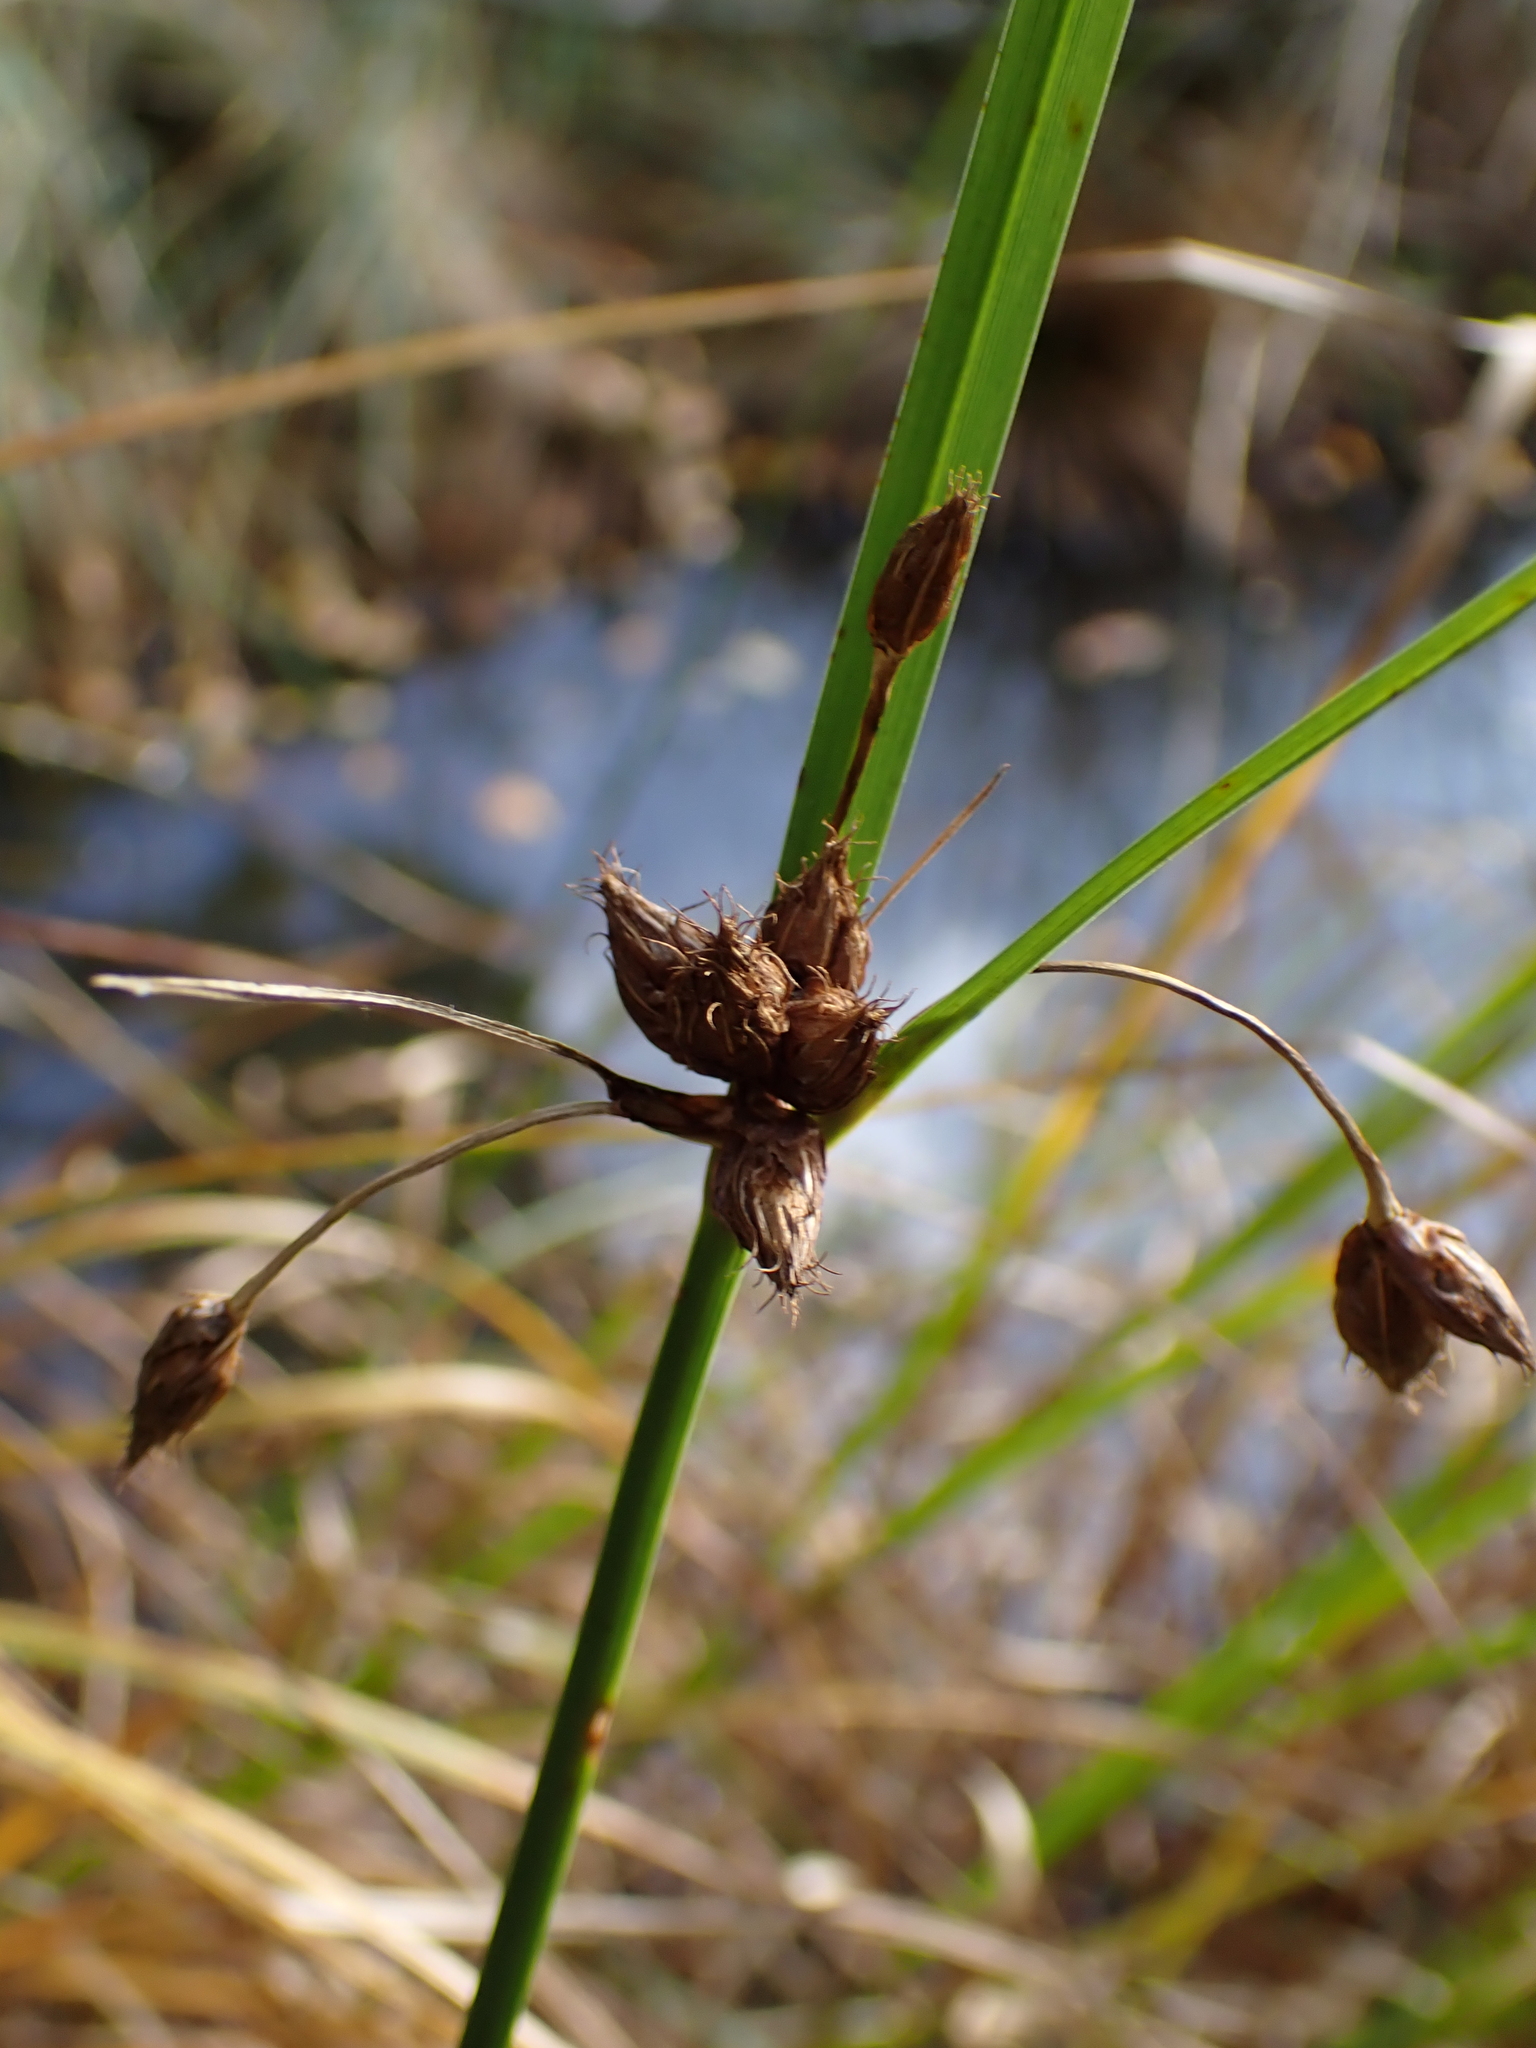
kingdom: Plantae
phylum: Tracheophyta
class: Liliopsida
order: Poales
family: Cyperaceae
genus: Bolboschoenus
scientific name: Bolboschoenus maritimus
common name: Sea club-rush
